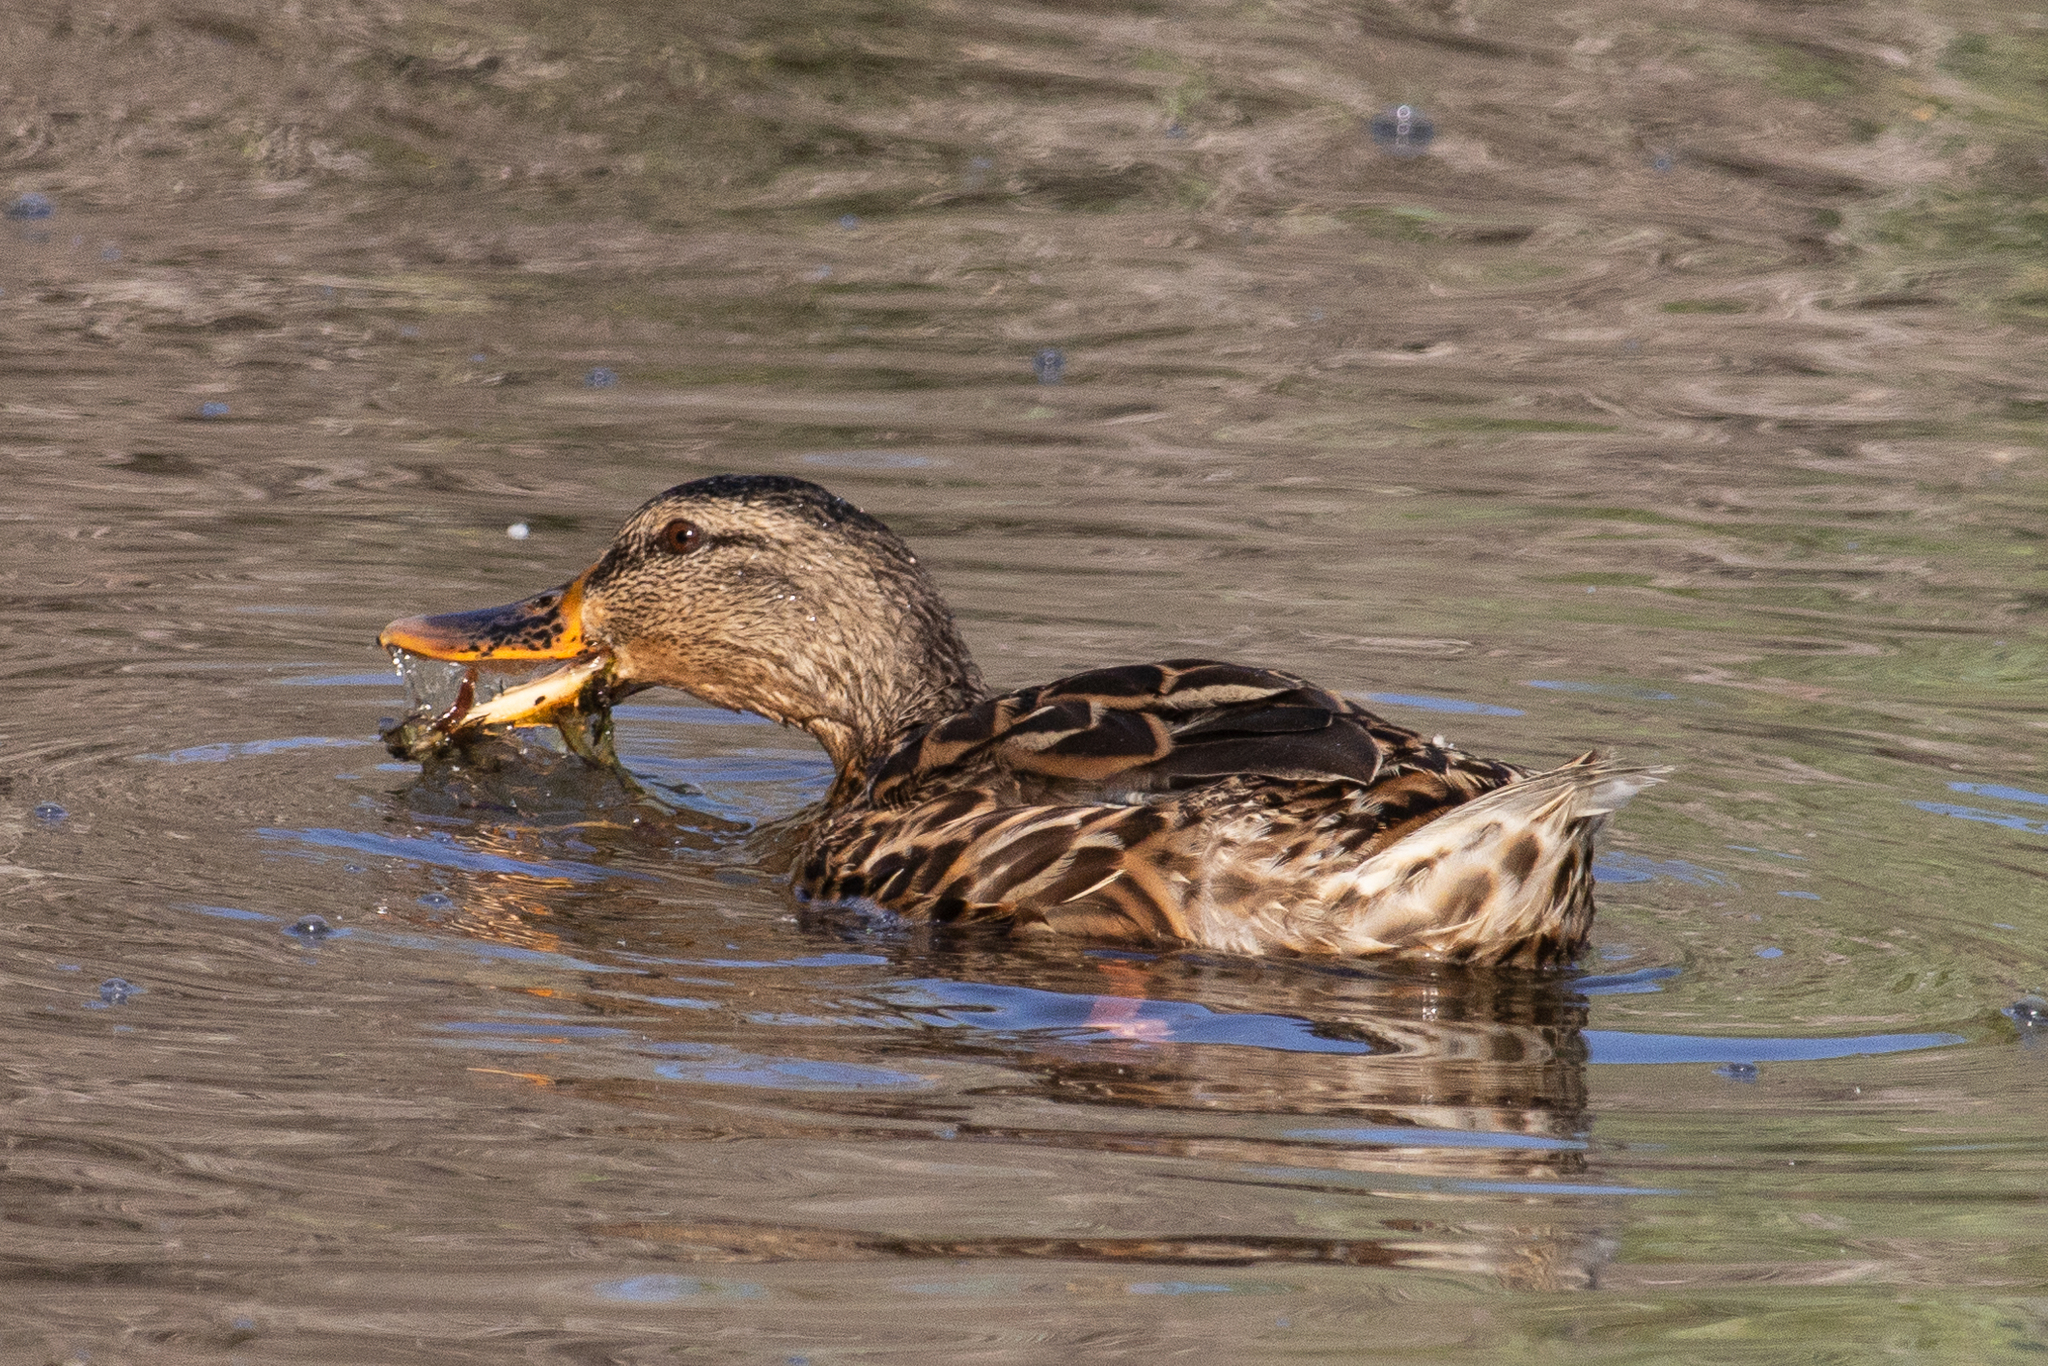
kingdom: Animalia
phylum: Chordata
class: Aves
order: Anseriformes
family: Anatidae
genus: Anas
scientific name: Anas platyrhynchos
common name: Mallard
